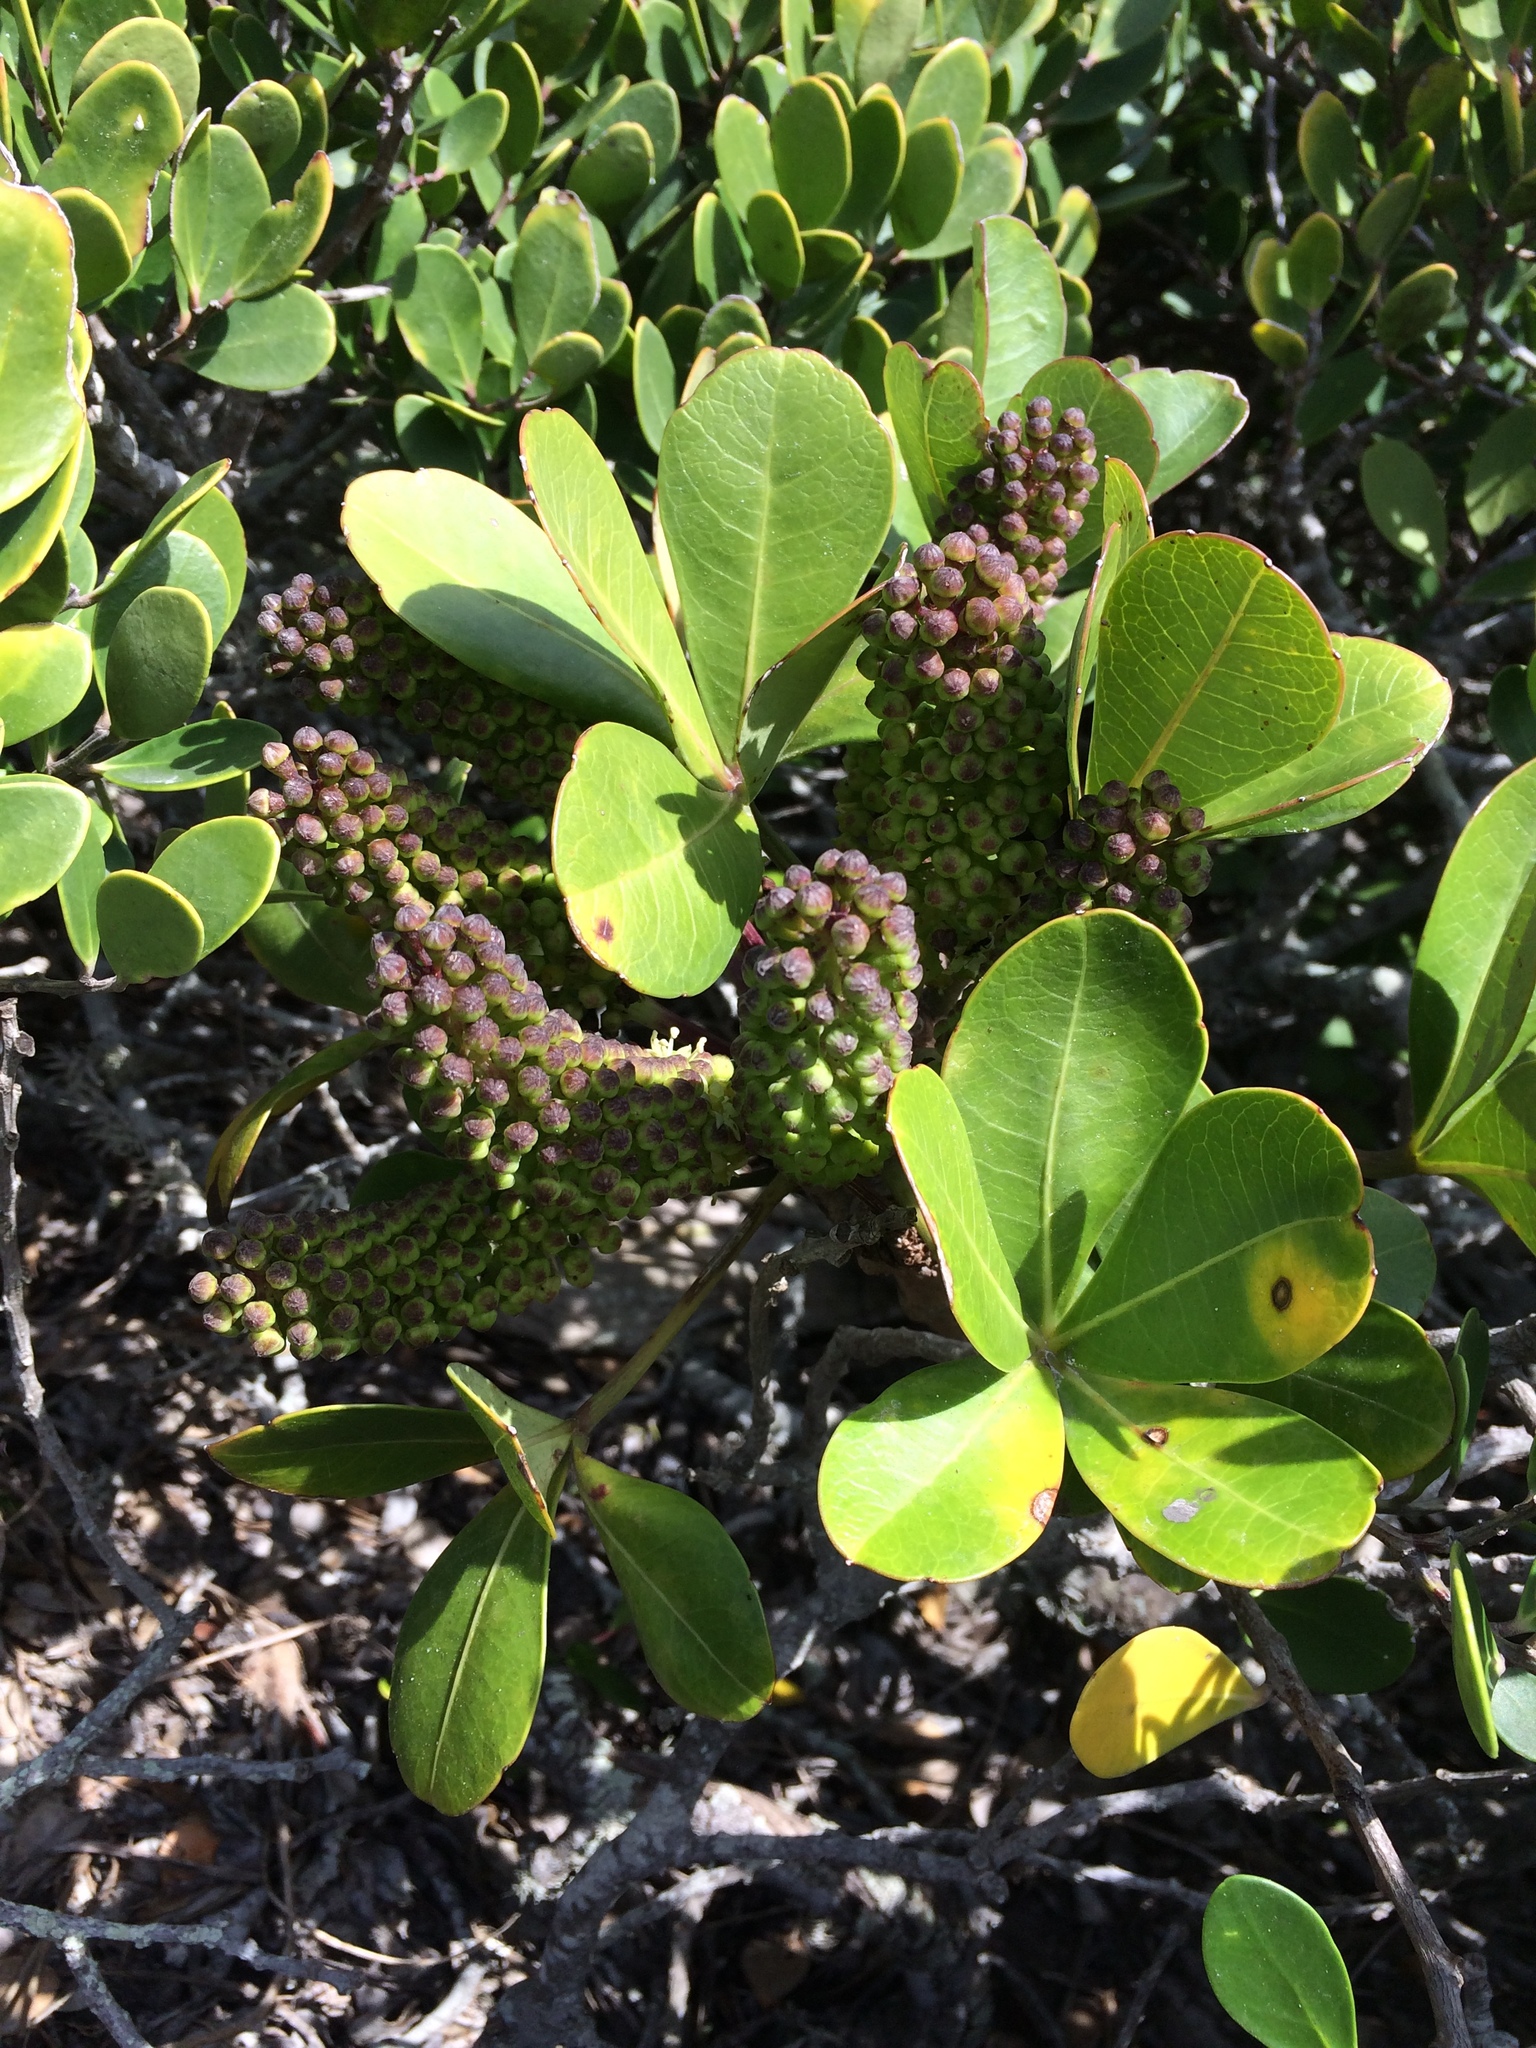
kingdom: Plantae
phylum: Tracheophyta
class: Magnoliopsida
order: Apiales
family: Araliaceae
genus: Cussonia
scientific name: Cussonia thyrsiflora
